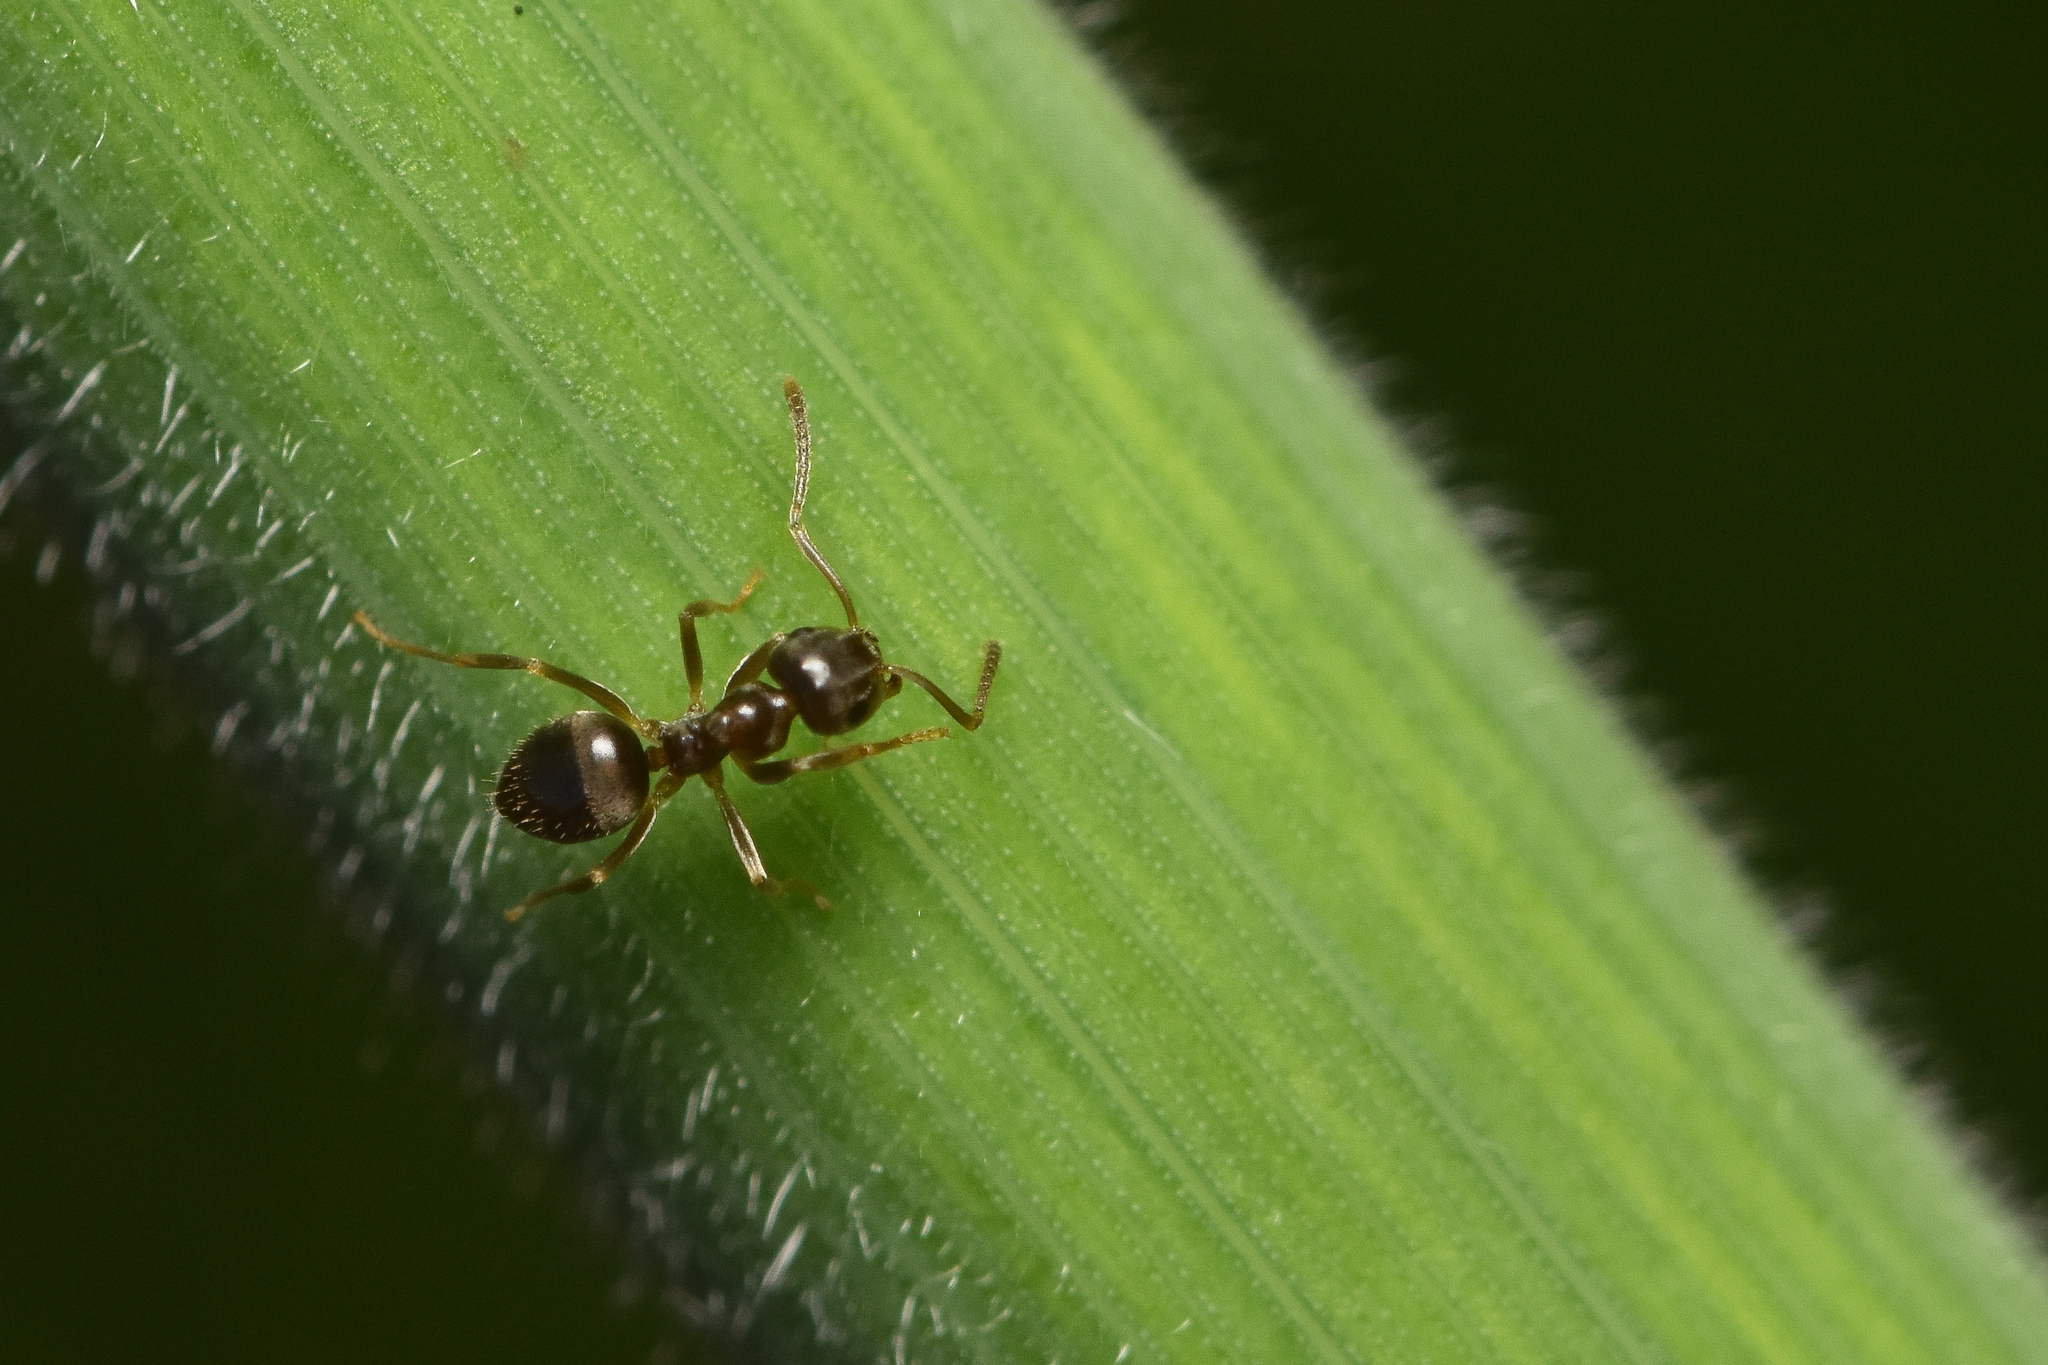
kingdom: Animalia
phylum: Arthropoda
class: Insecta
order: Hymenoptera
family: Formicidae
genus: Lasius
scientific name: Lasius americanus
